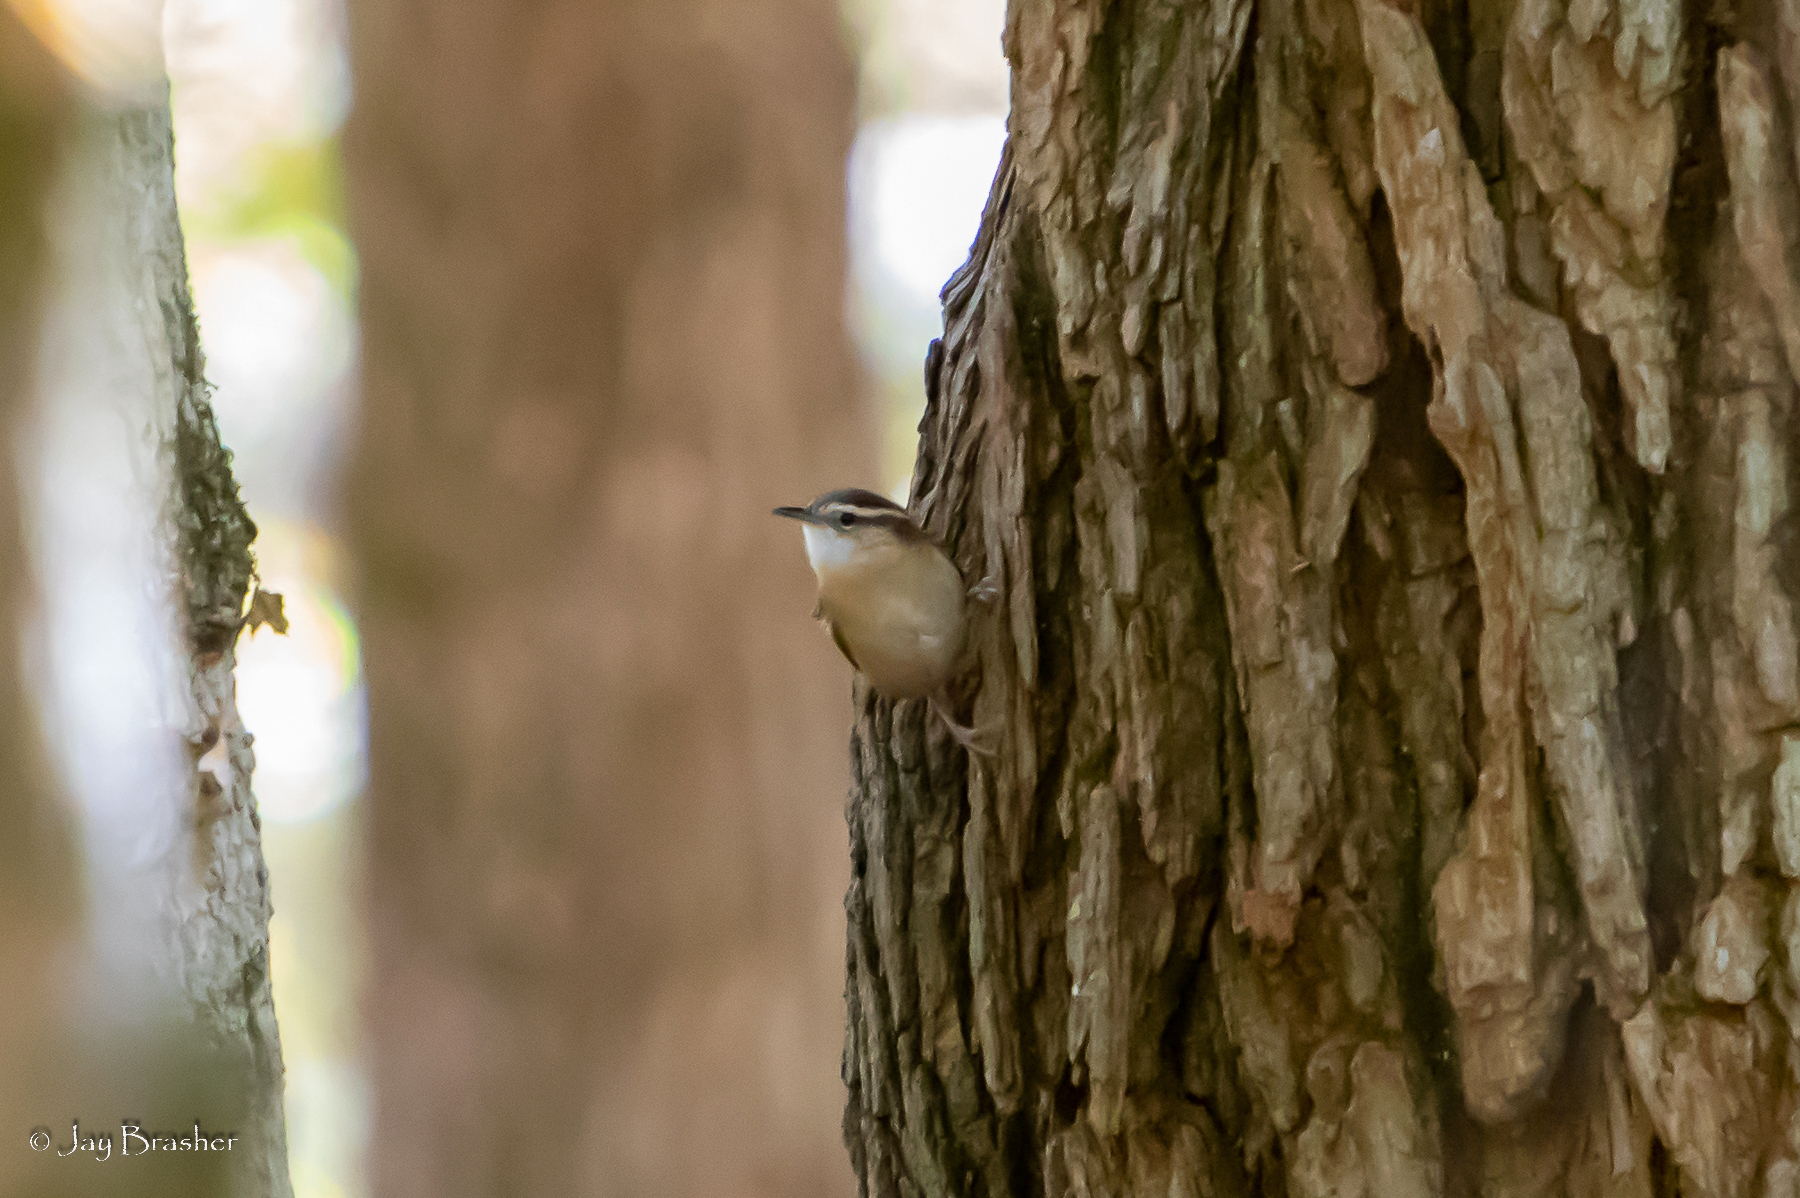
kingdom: Animalia
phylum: Chordata
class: Aves
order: Passeriformes
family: Troglodytidae
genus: Thryothorus
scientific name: Thryothorus ludovicianus
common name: Carolina wren
